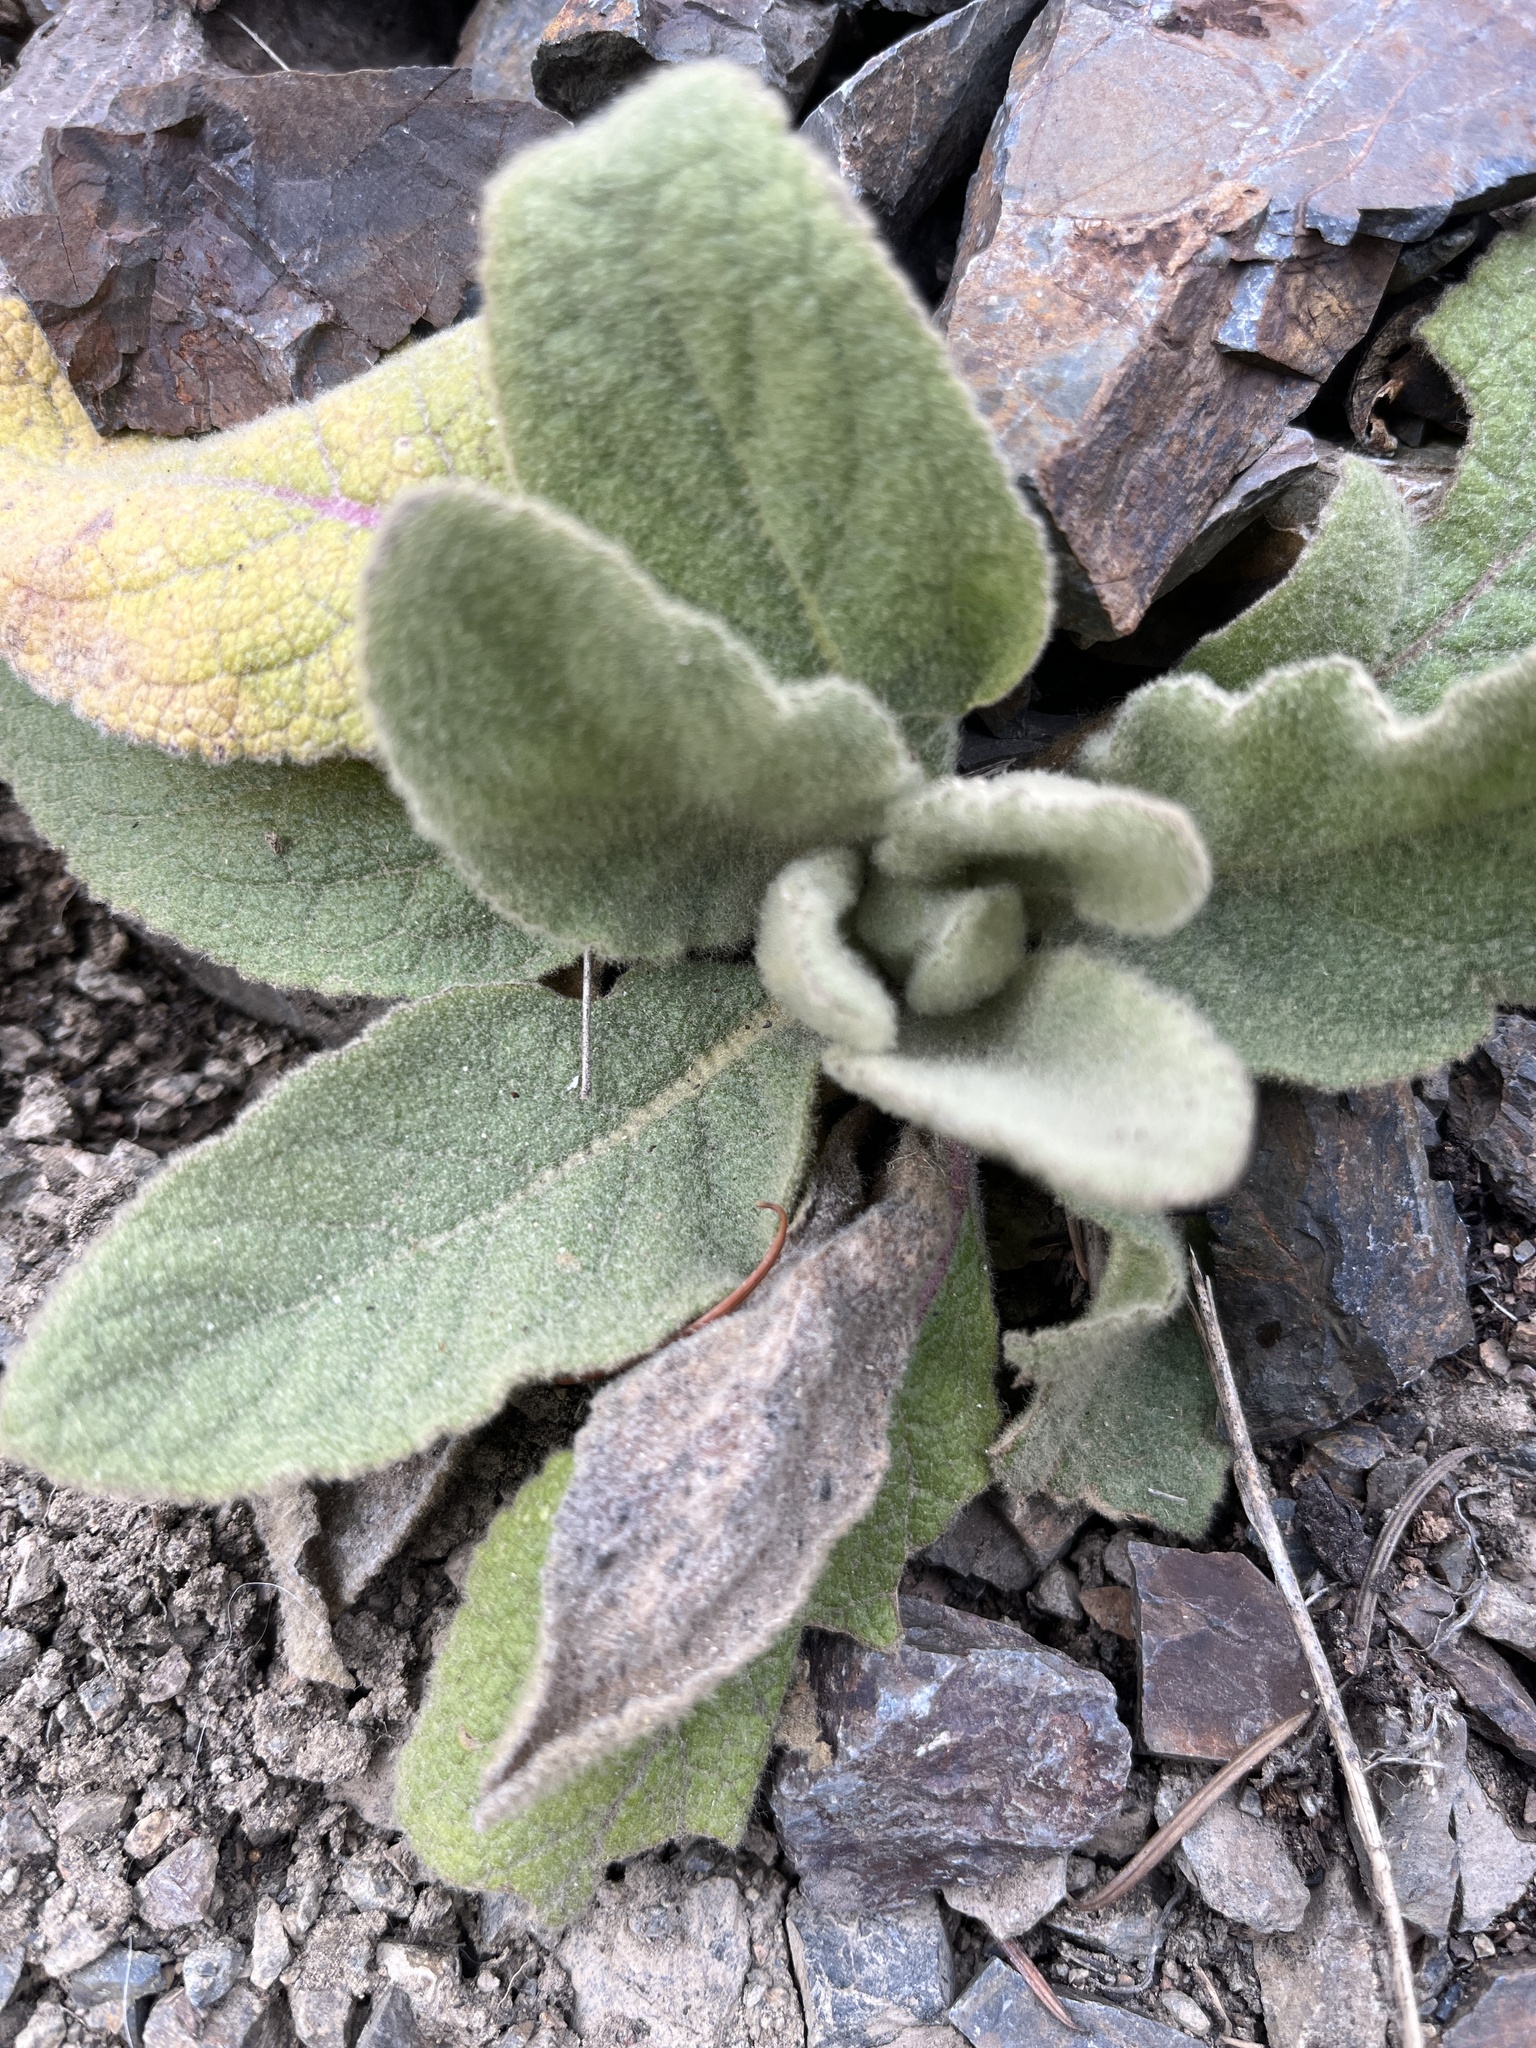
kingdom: Plantae
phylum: Tracheophyta
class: Magnoliopsida
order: Lamiales
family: Scrophulariaceae
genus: Verbascum
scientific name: Verbascum thapsus
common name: Common mullein
